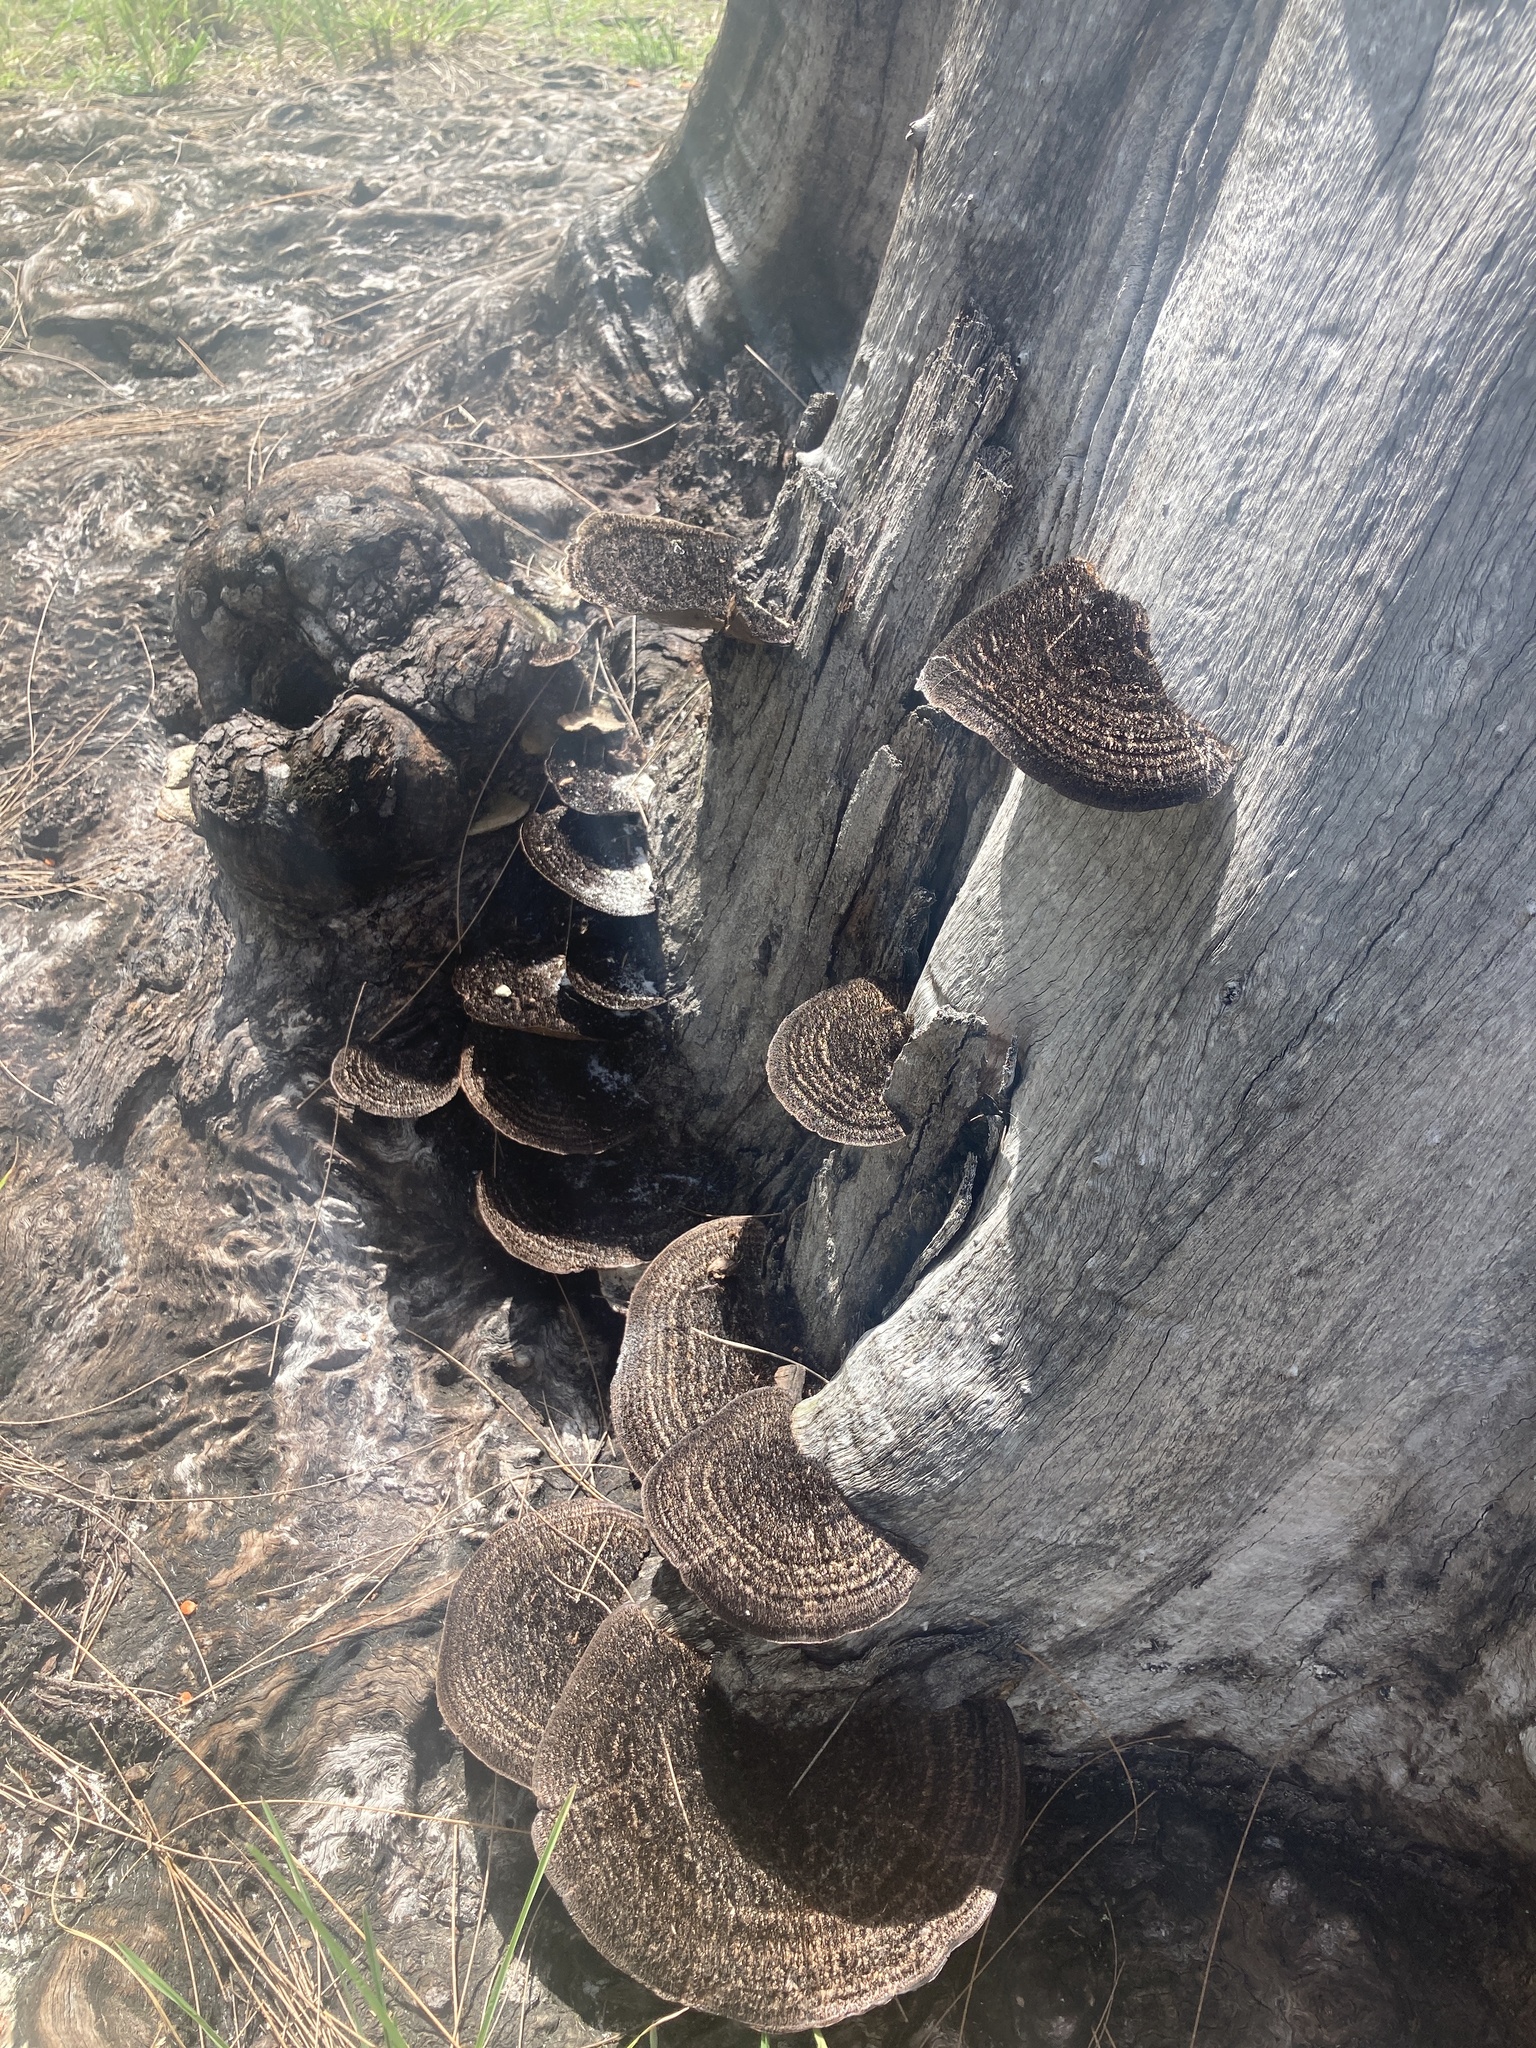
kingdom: Fungi
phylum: Basidiomycota
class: Agaricomycetes
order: Polyporales
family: Cerrenaceae
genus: Cerrena
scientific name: Cerrena hydnoides
